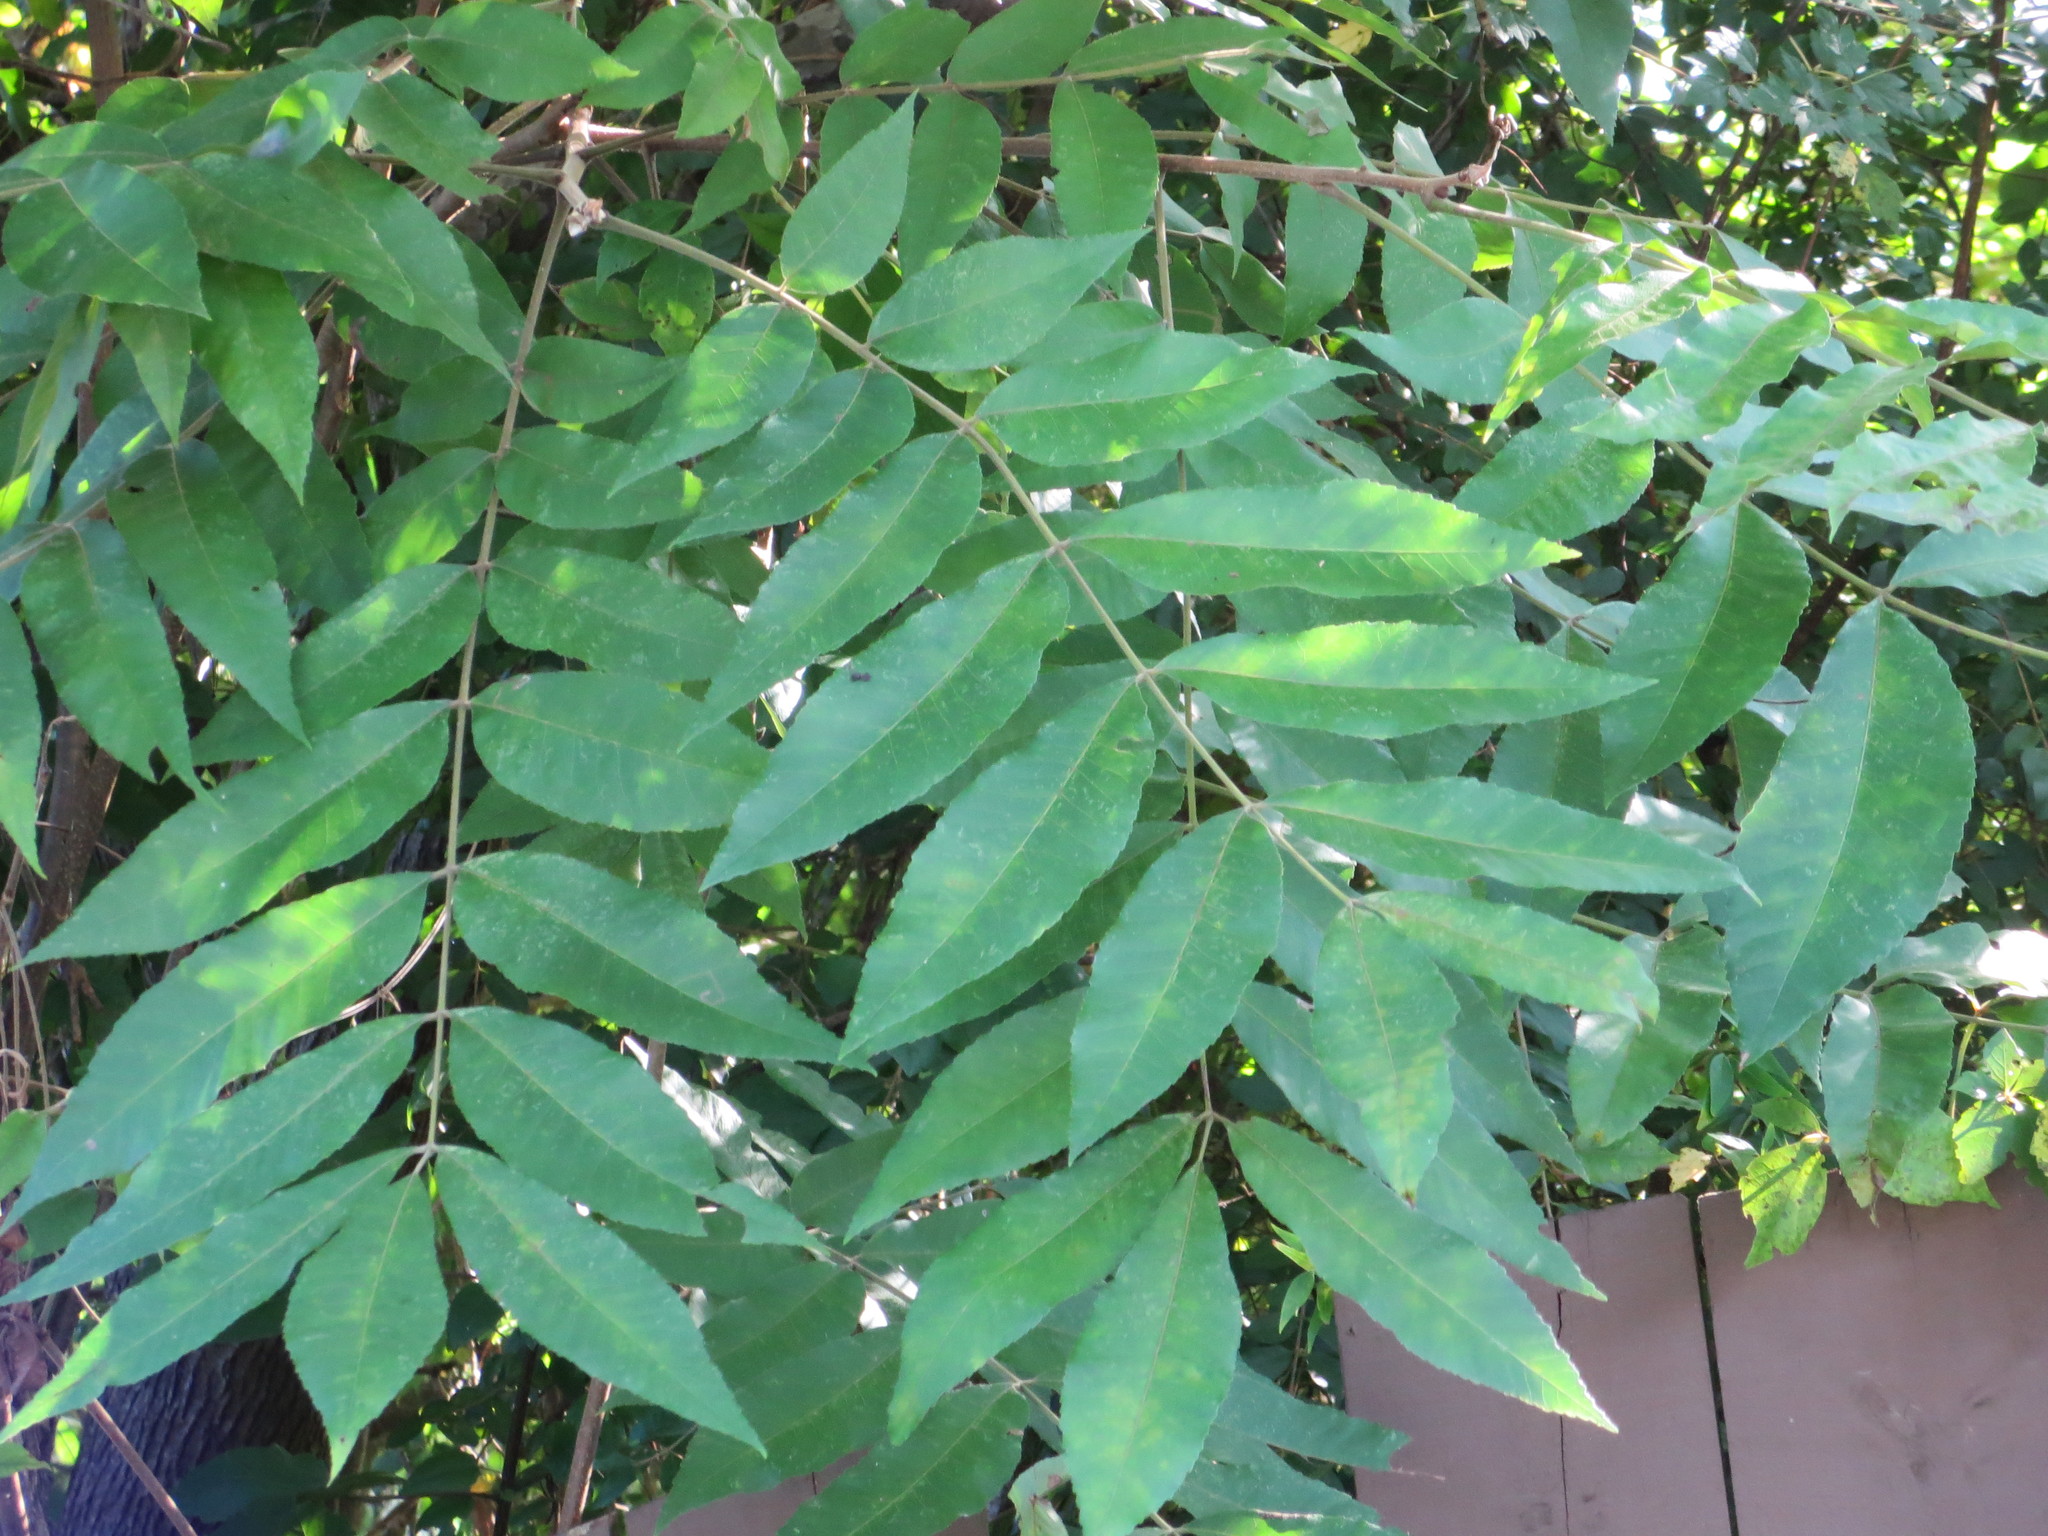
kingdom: Plantae
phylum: Tracheophyta
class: Magnoliopsida
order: Fagales
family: Juglandaceae
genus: Carya
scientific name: Carya illinoinensis
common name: Pecan
